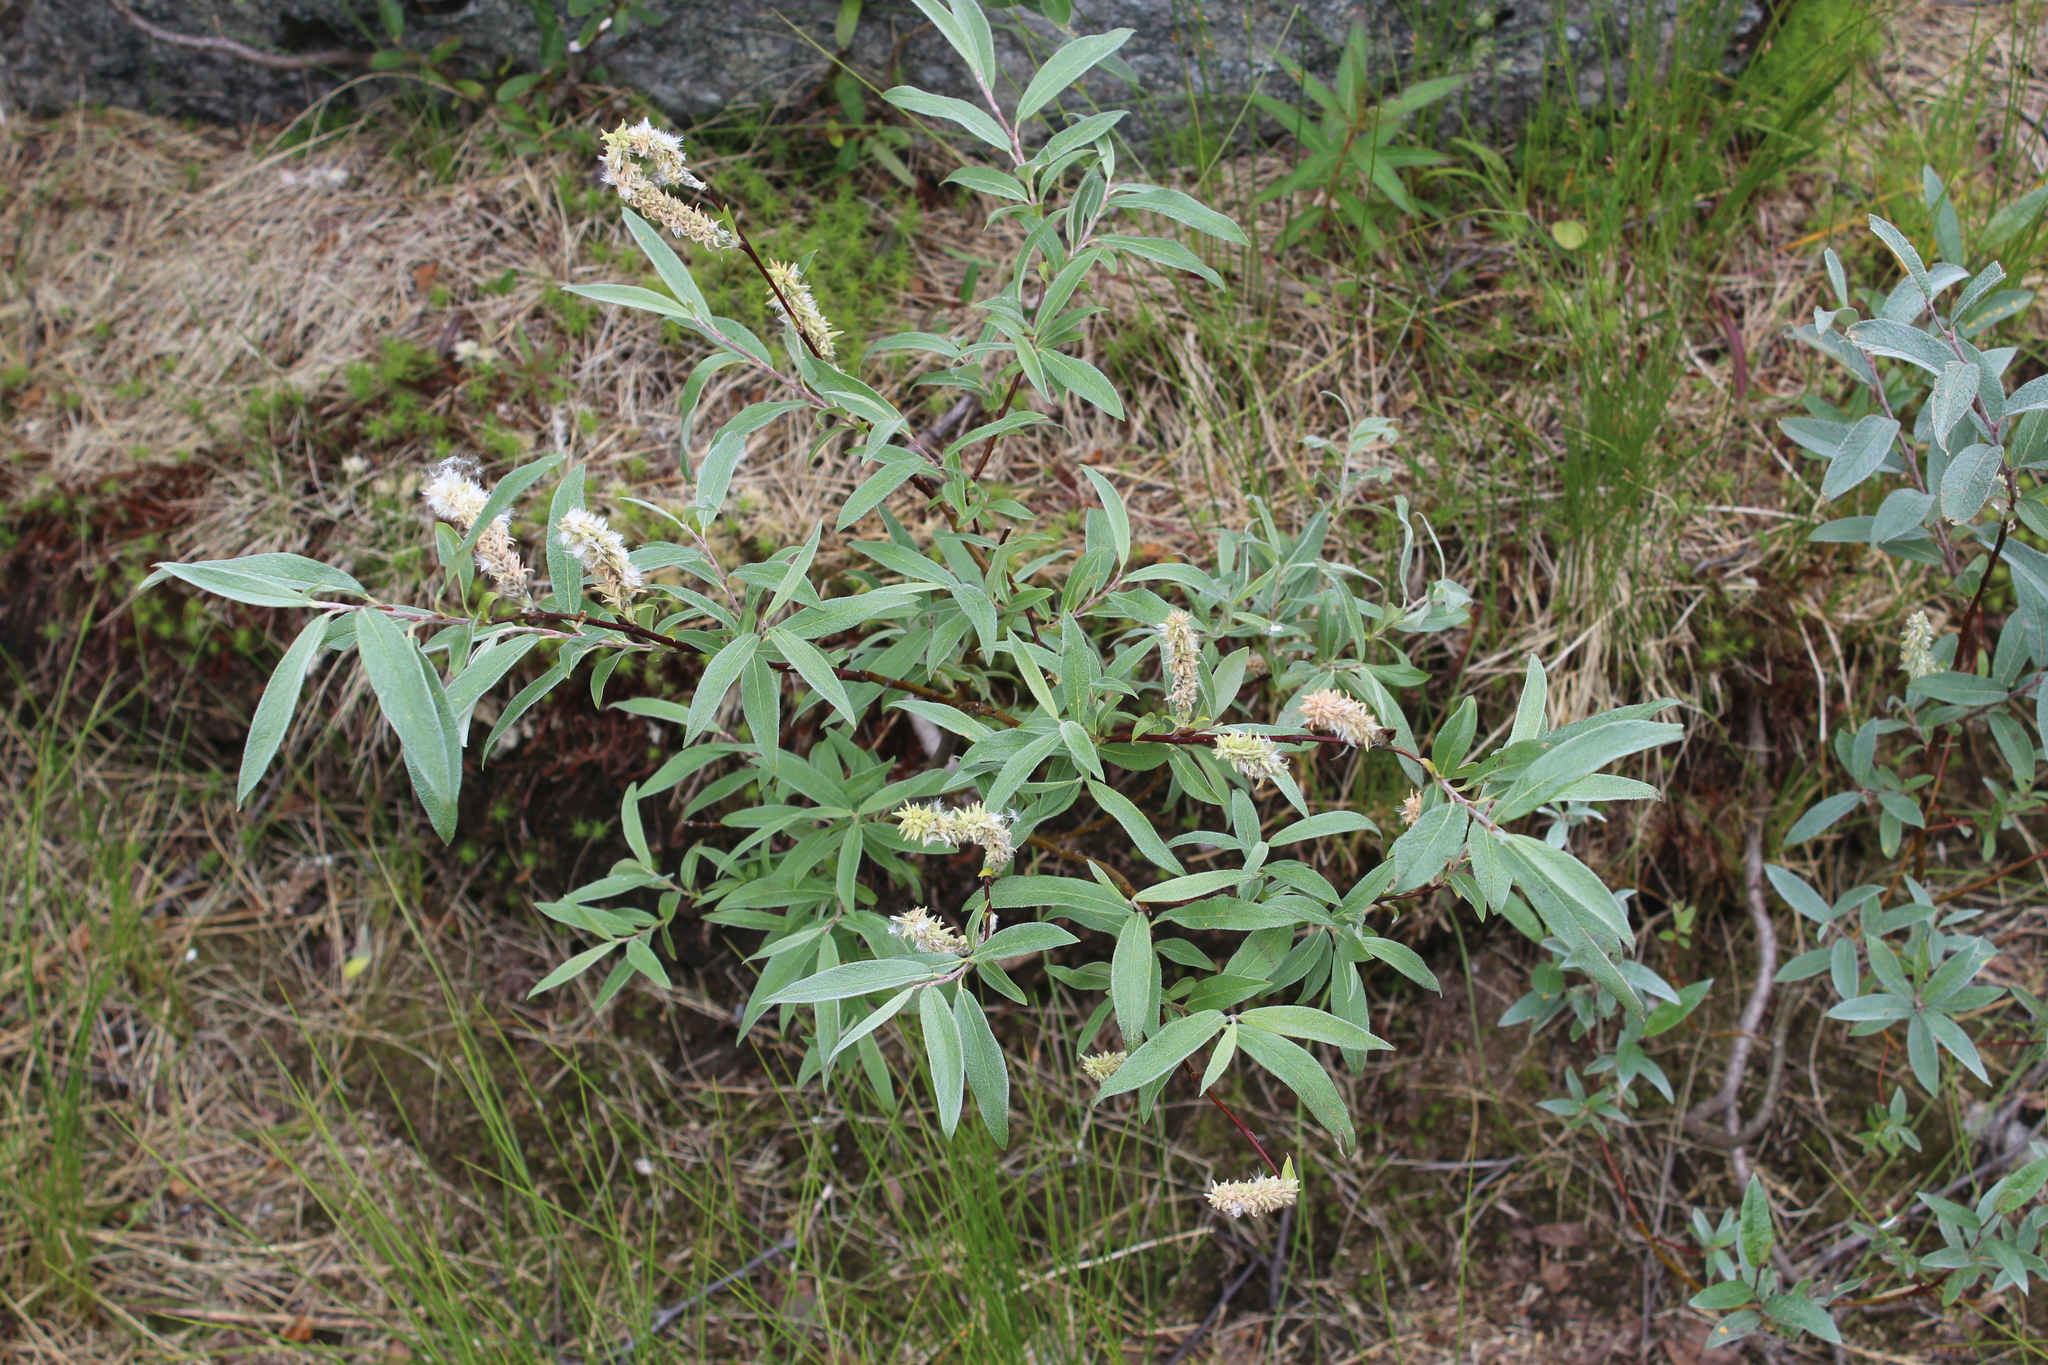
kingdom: Plantae
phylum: Tracheophyta
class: Magnoliopsida
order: Malpighiales
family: Salicaceae
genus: Salix
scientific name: Salix lapponum
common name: Downy willow
